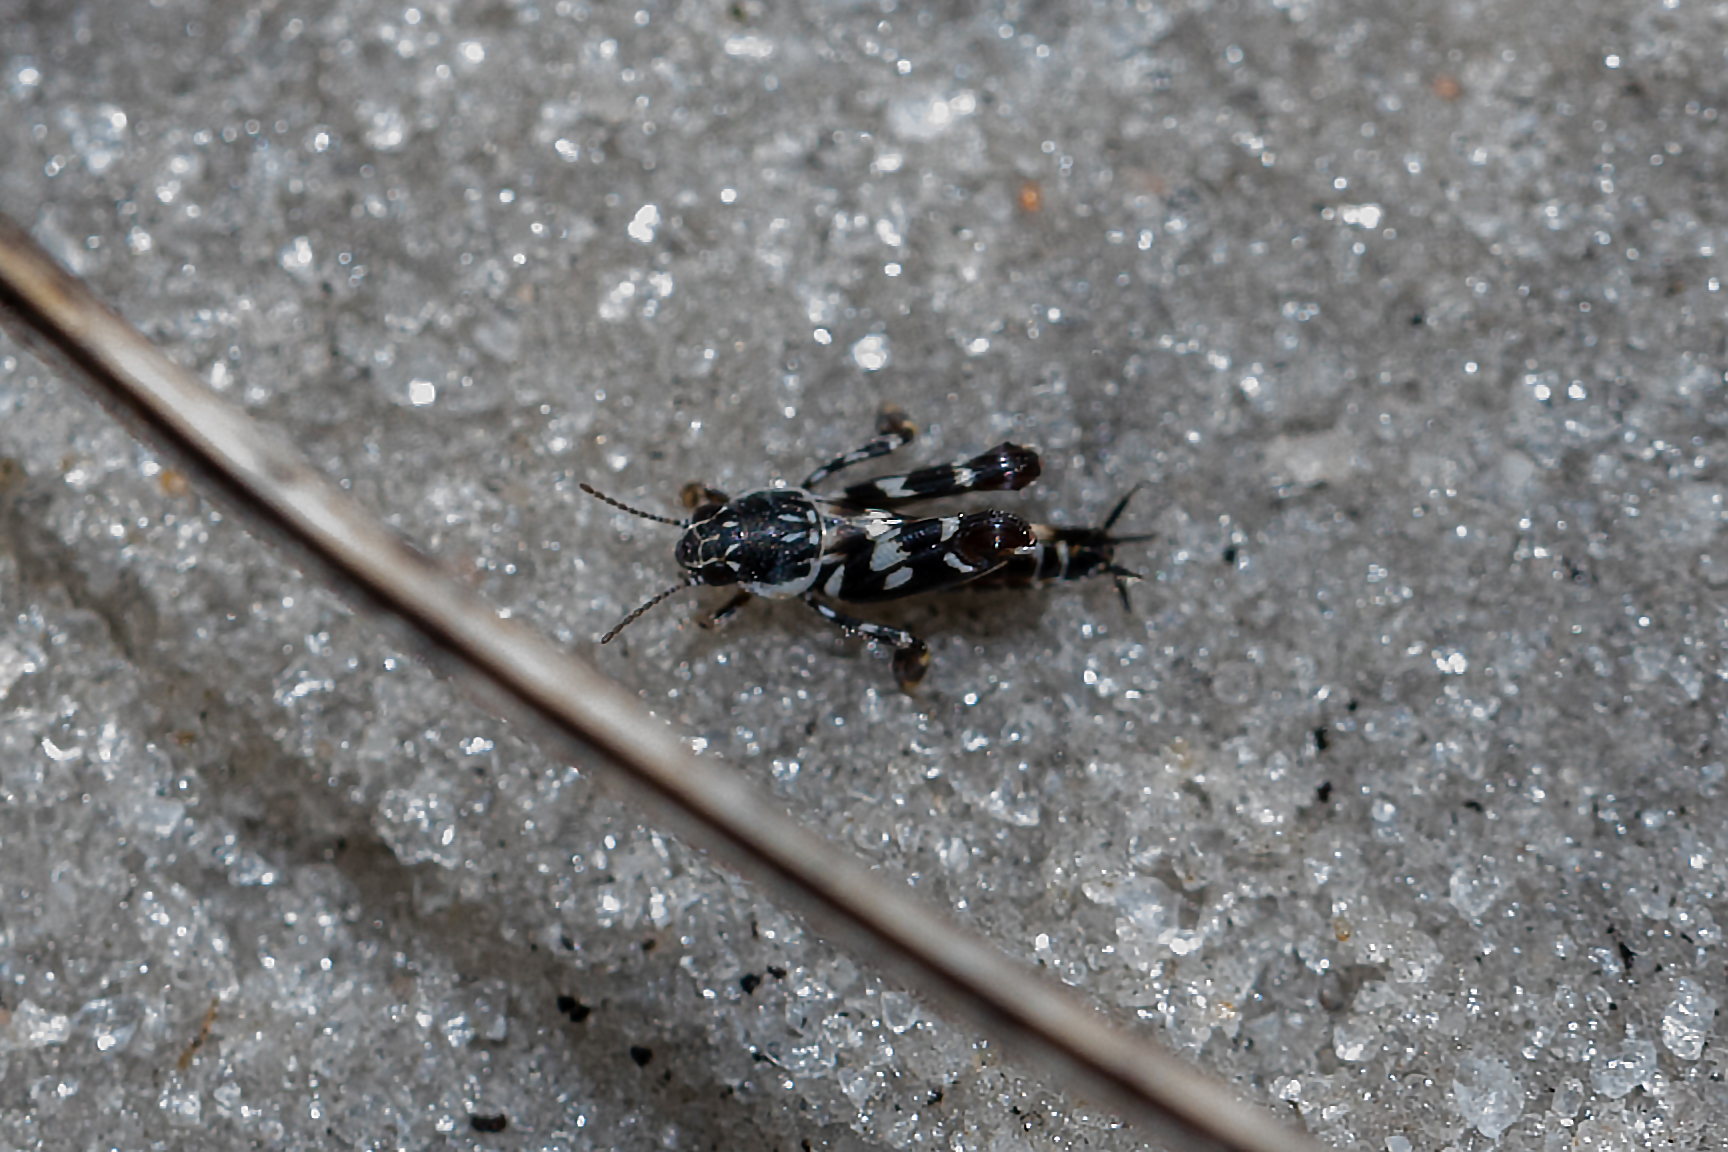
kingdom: Animalia
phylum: Arthropoda
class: Insecta
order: Orthoptera
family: Tridactylidae
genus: Ellipes
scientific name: Ellipes gurneyi
